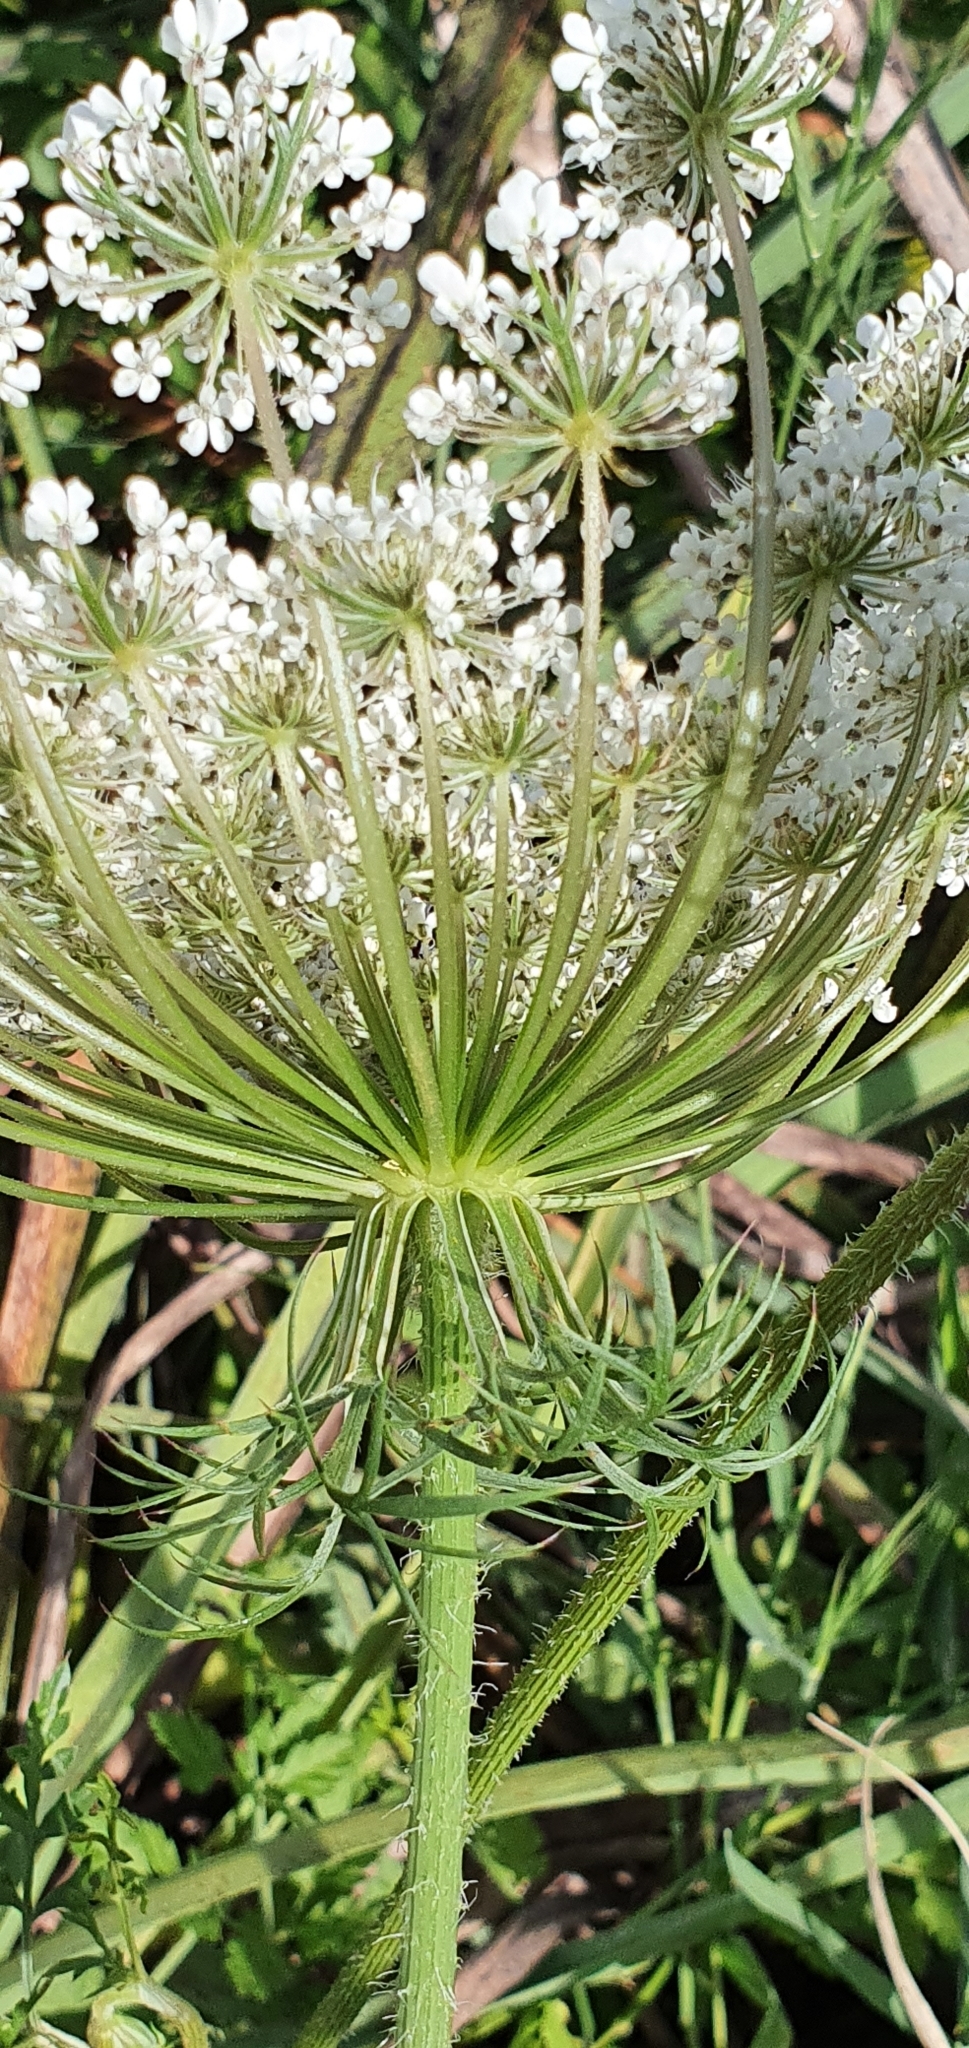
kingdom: Plantae
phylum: Tracheophyta
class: Magnoliopsida
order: Apiales
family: Apiaceae
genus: Daucus
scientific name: Daucus carota
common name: Wild carrot
